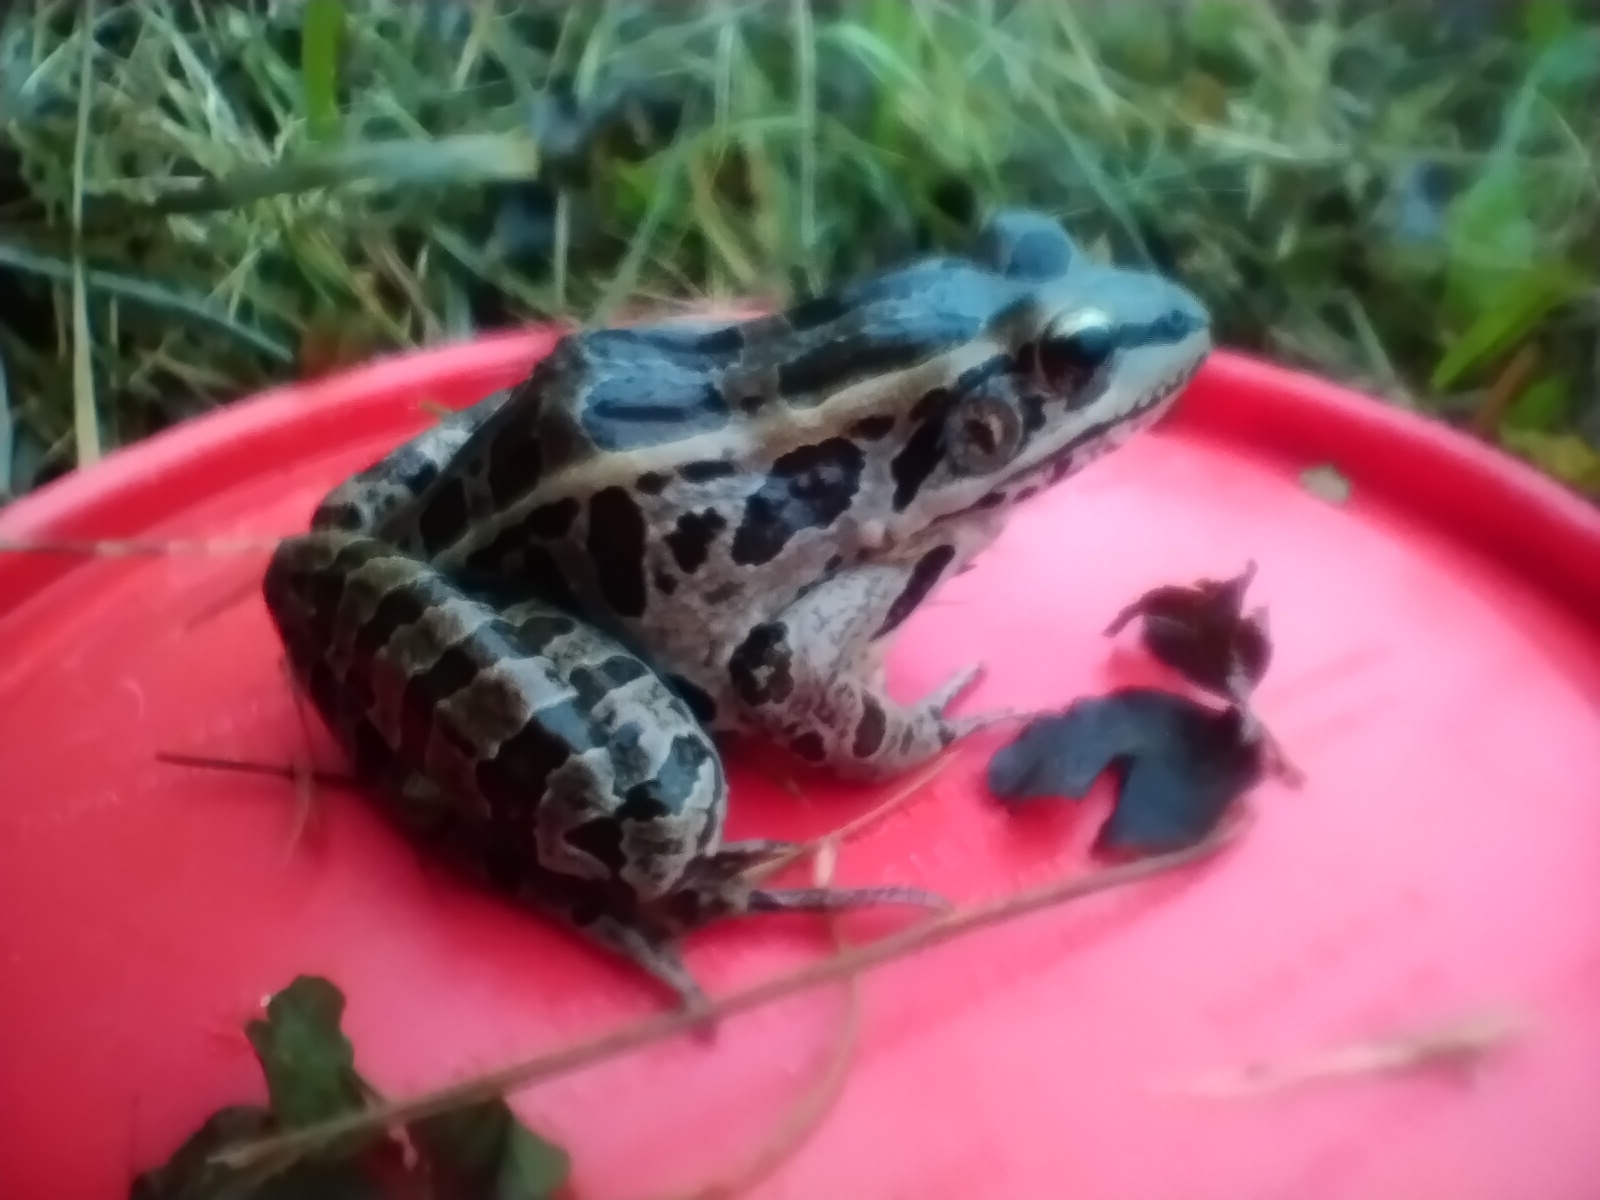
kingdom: Animalia
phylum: Chordata
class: Amphibia
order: Anura
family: Ranidae
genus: Lithobates
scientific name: Lithobates palustris
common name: Pickerel frog
